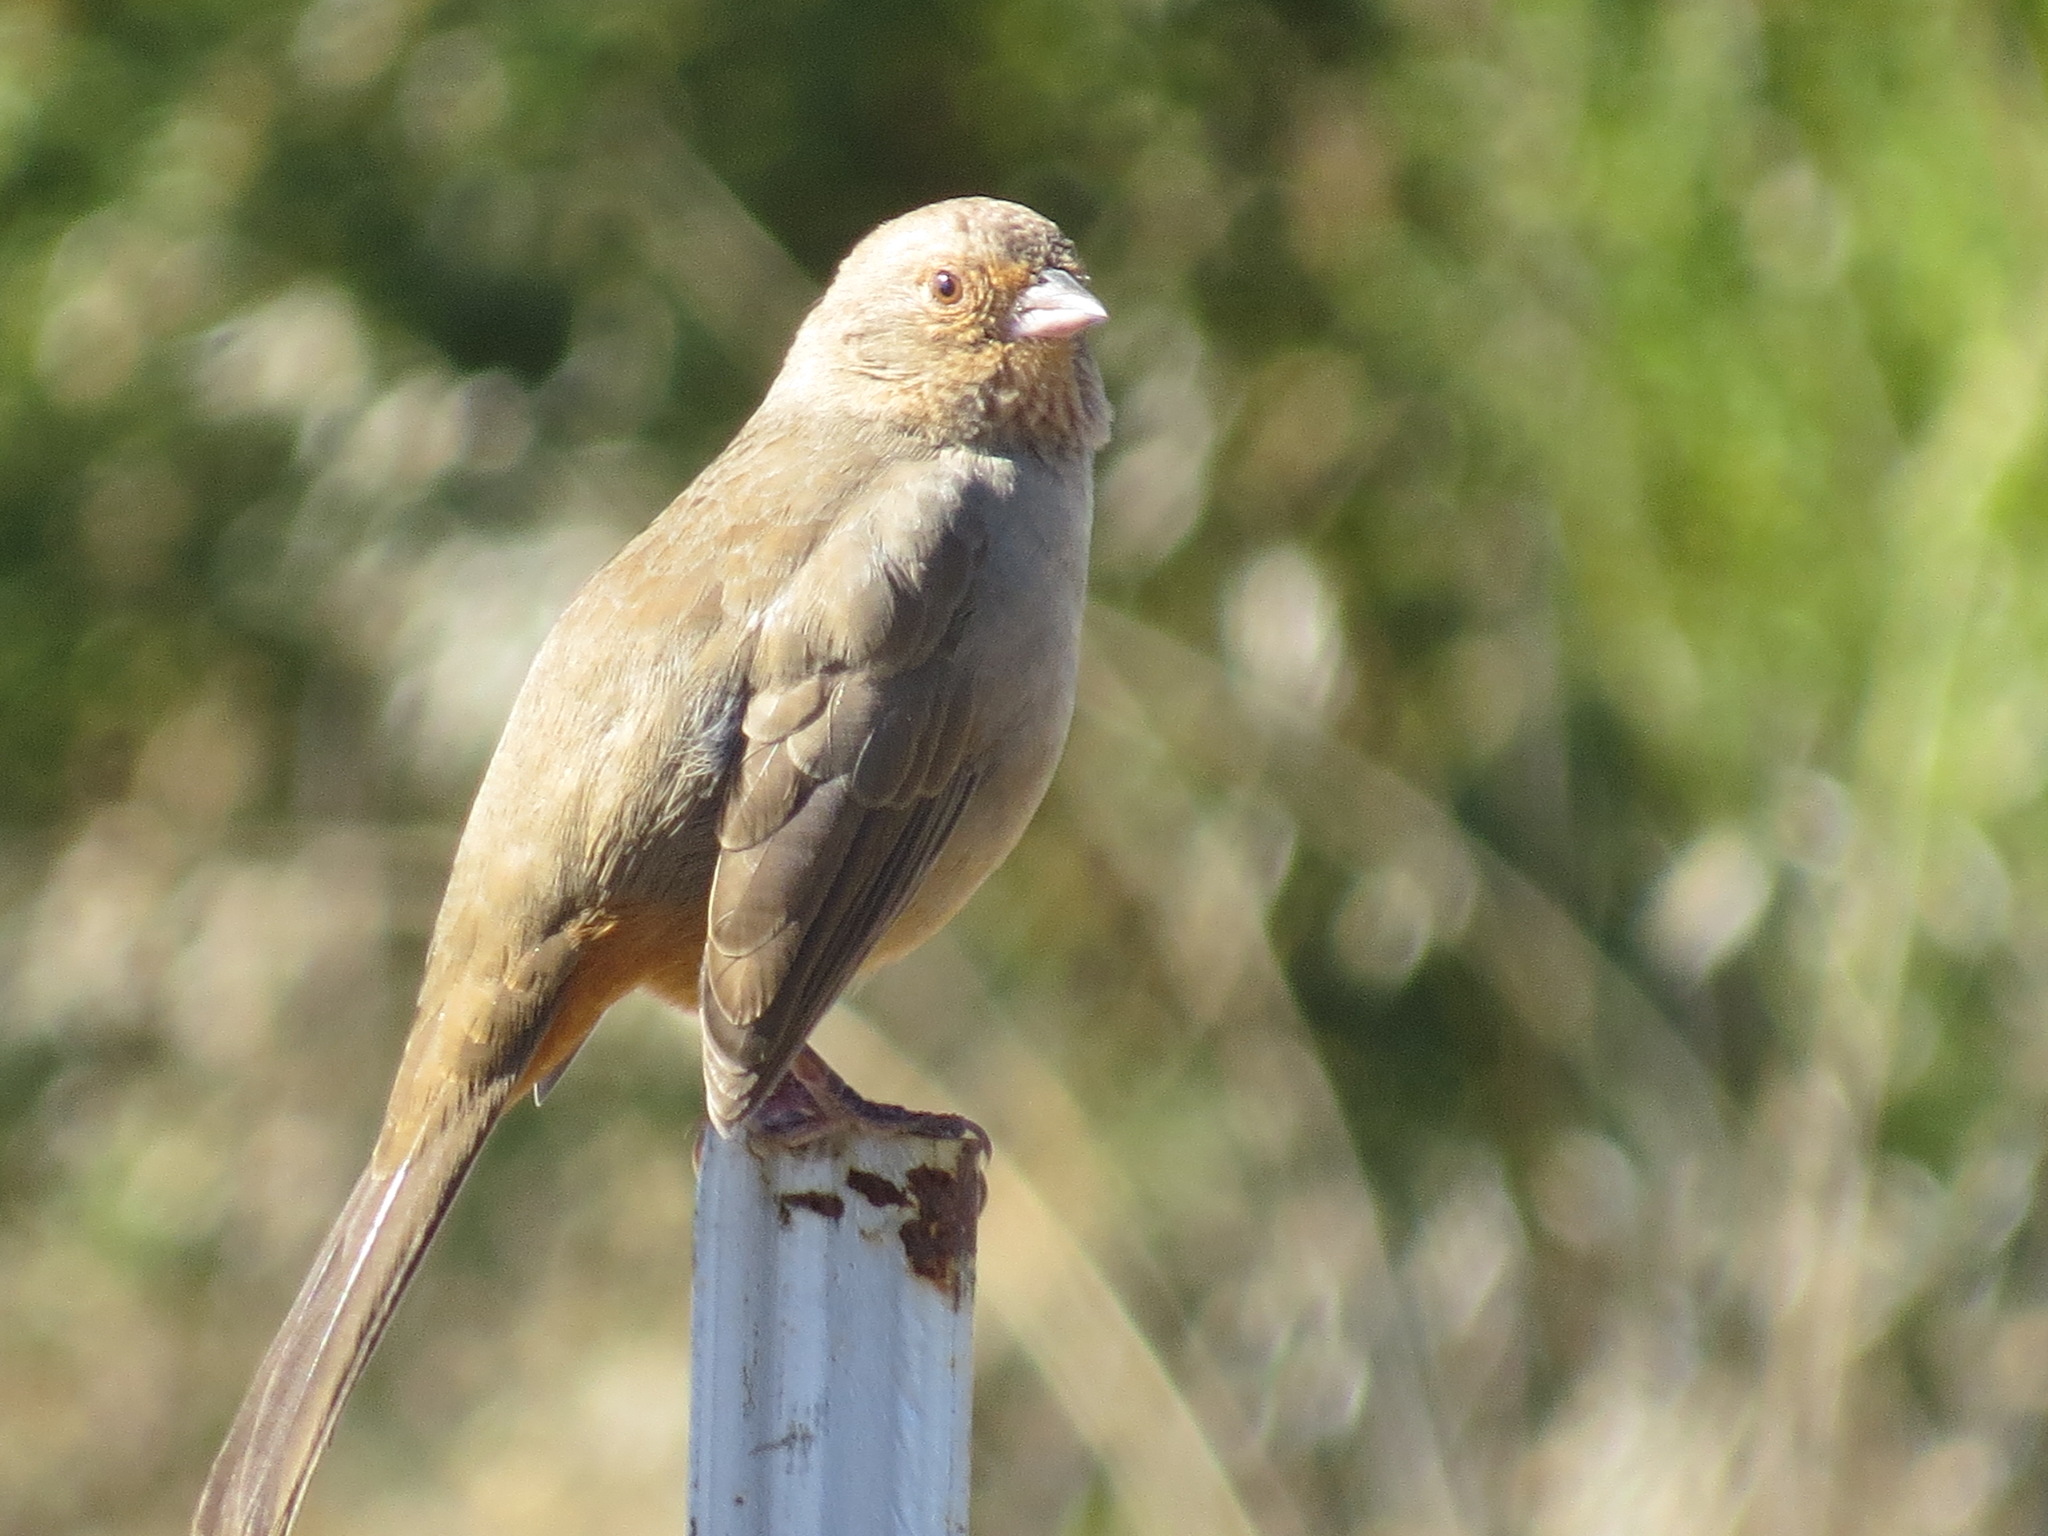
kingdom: Animalia
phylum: Chordata
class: Aves
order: Passeriformes
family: Passerellidae
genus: Melozone
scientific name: Melozone crissalis
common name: California towhee
